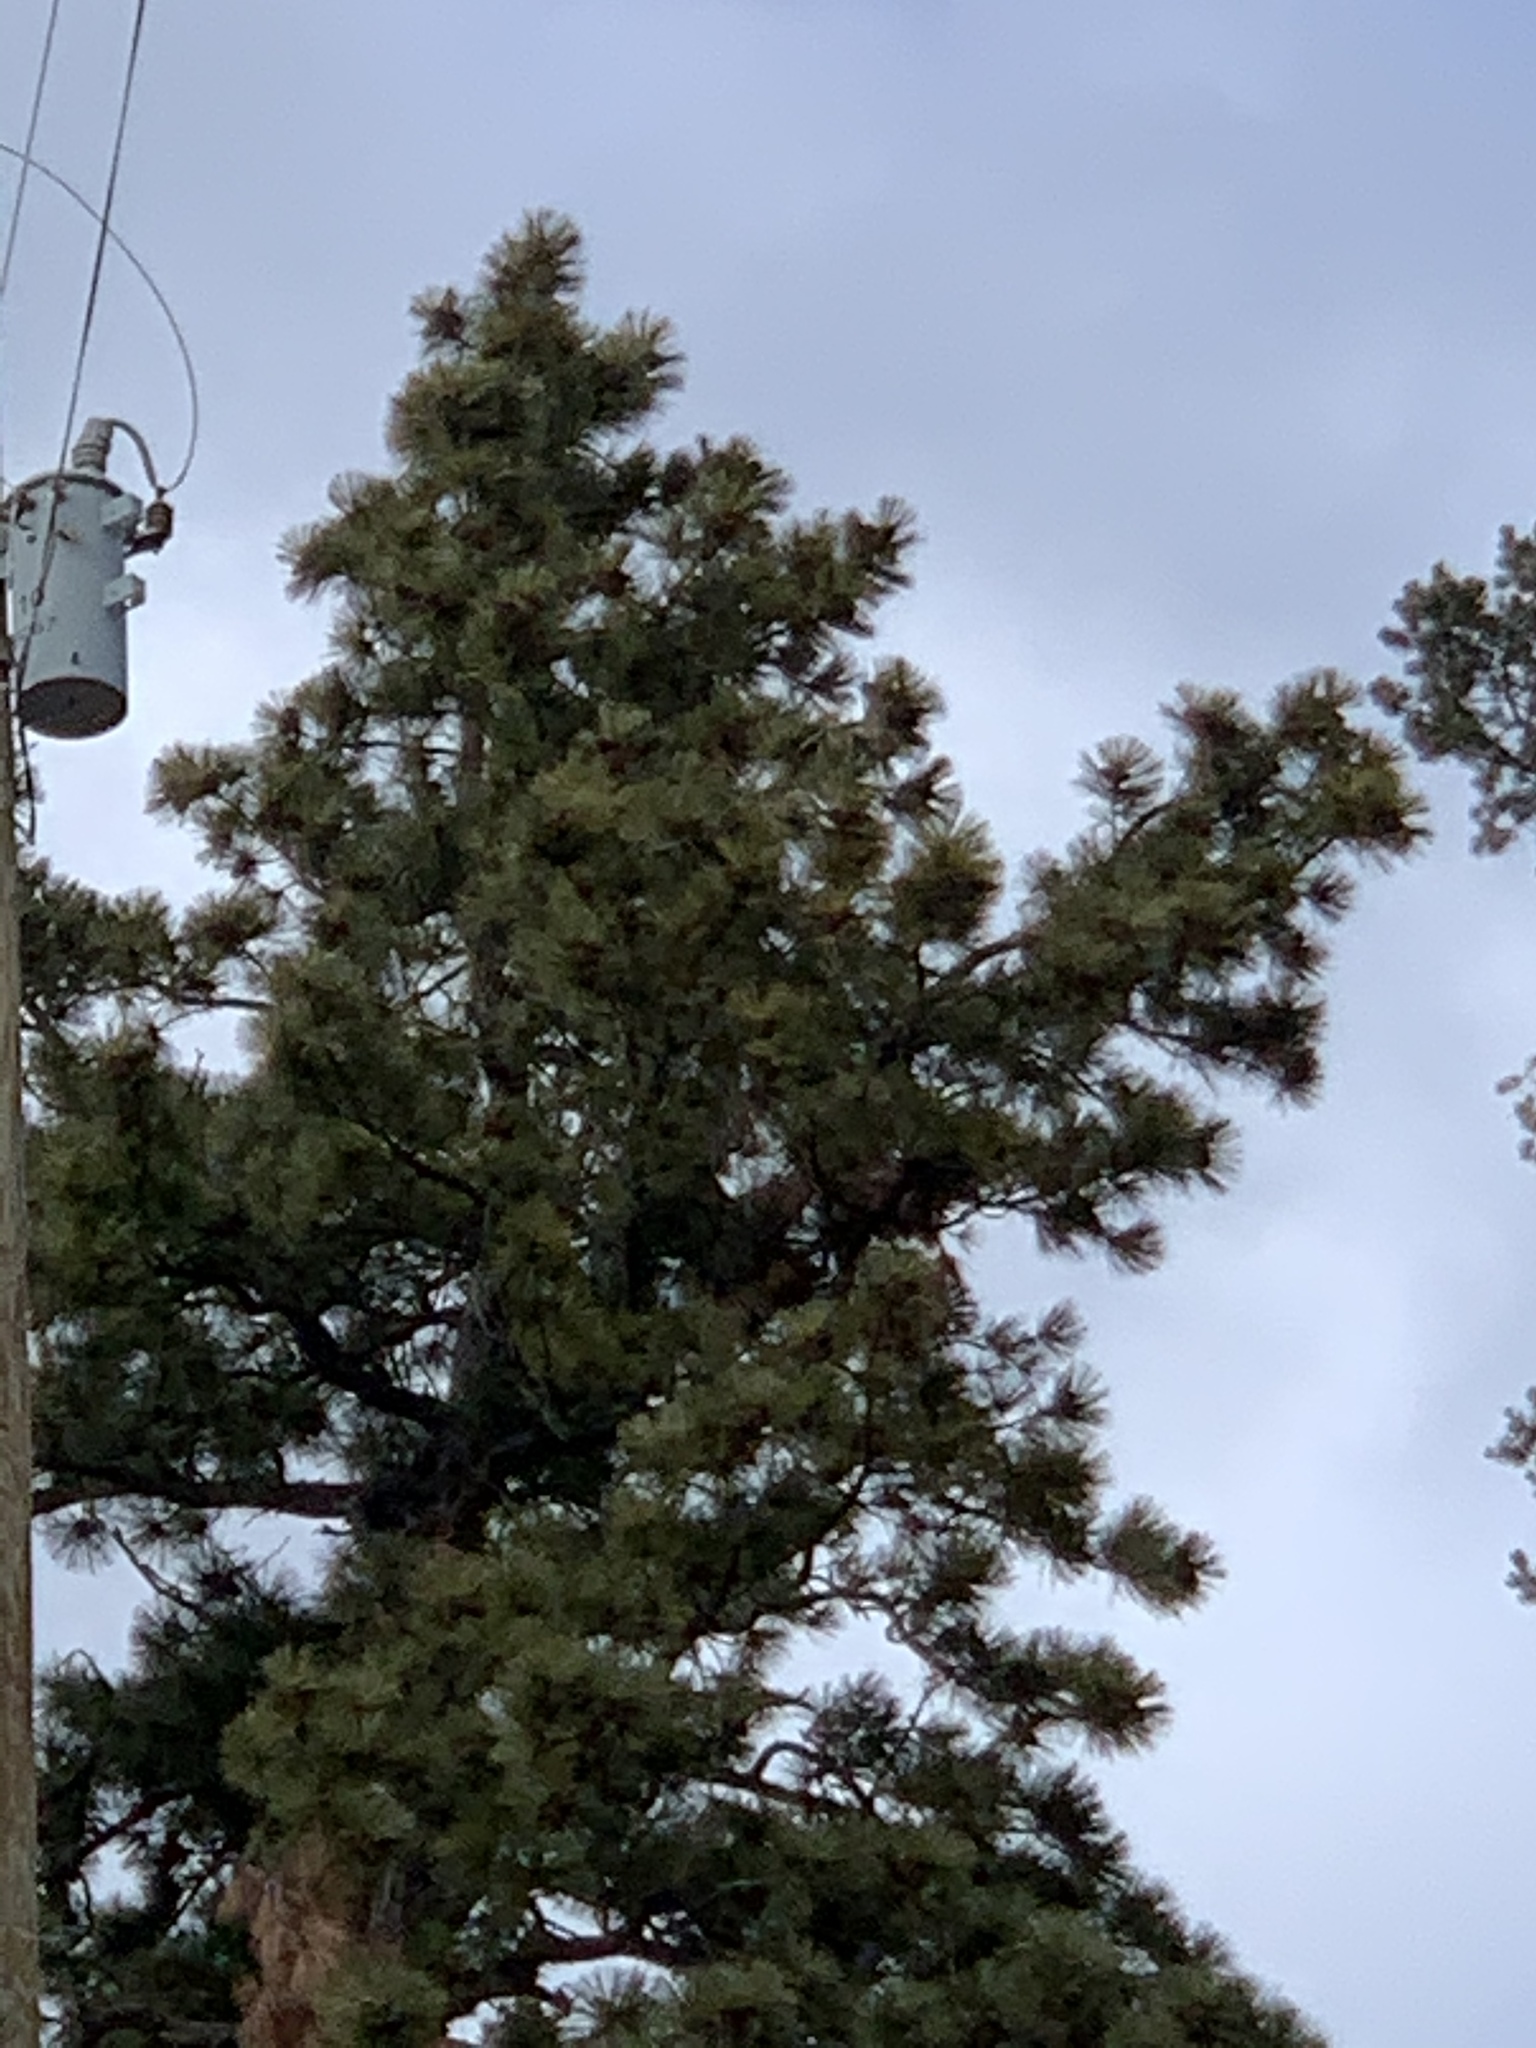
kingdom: Plantae
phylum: Tracheophyta
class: Pinopsida
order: Pinales
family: Pinaceae
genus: Pinus
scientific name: Pinus ponderosa
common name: Western yellow-pine
